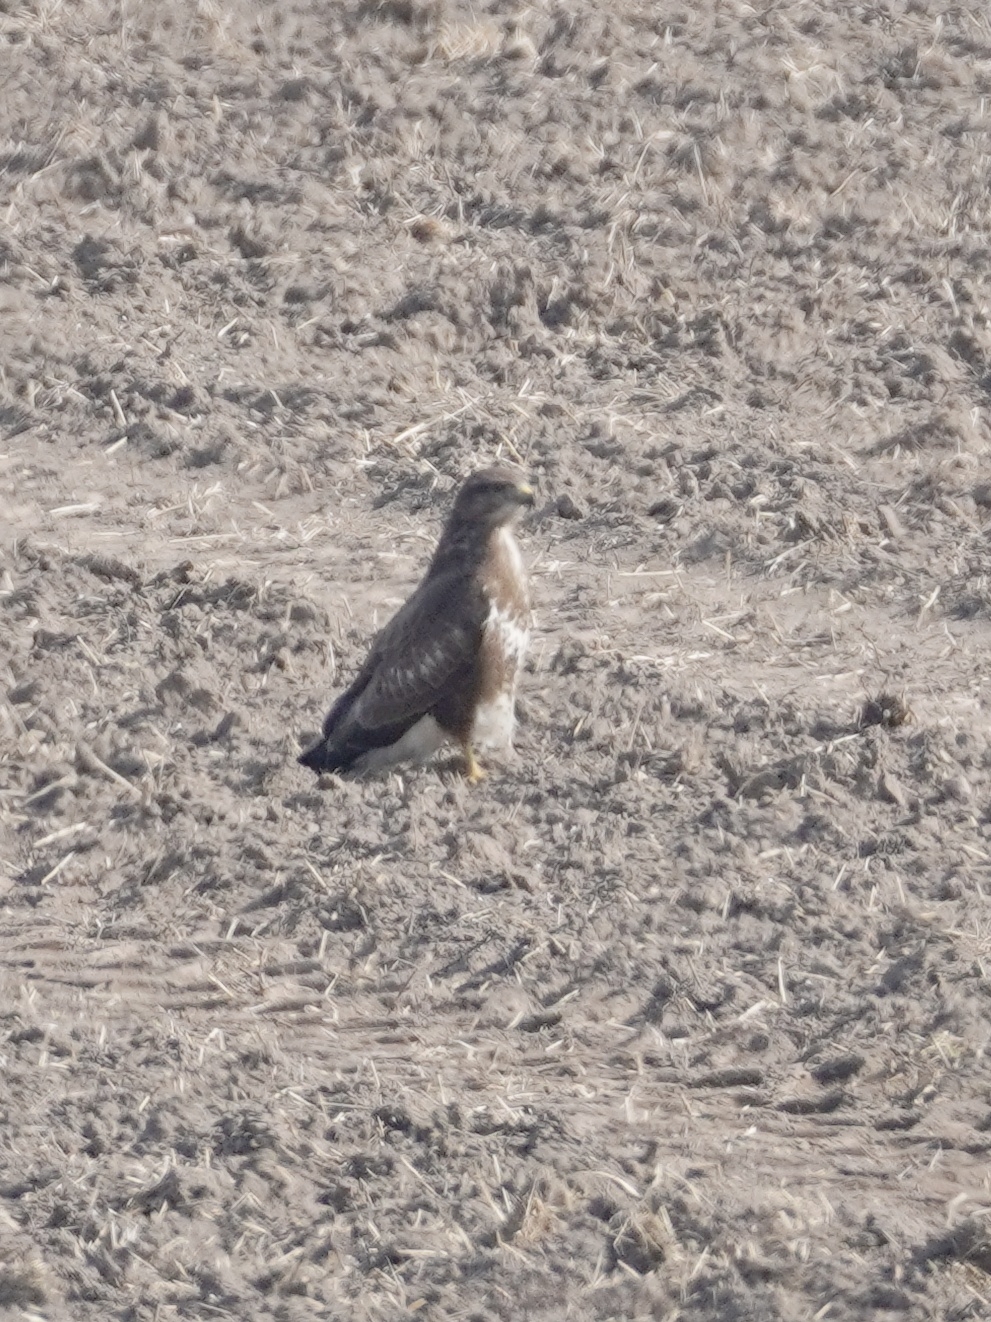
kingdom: Animalia
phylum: Chordata
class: Aves
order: Accipitriformes
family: Accipitridae
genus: Buteo
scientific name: Buteo buteo
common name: Common buzzard
